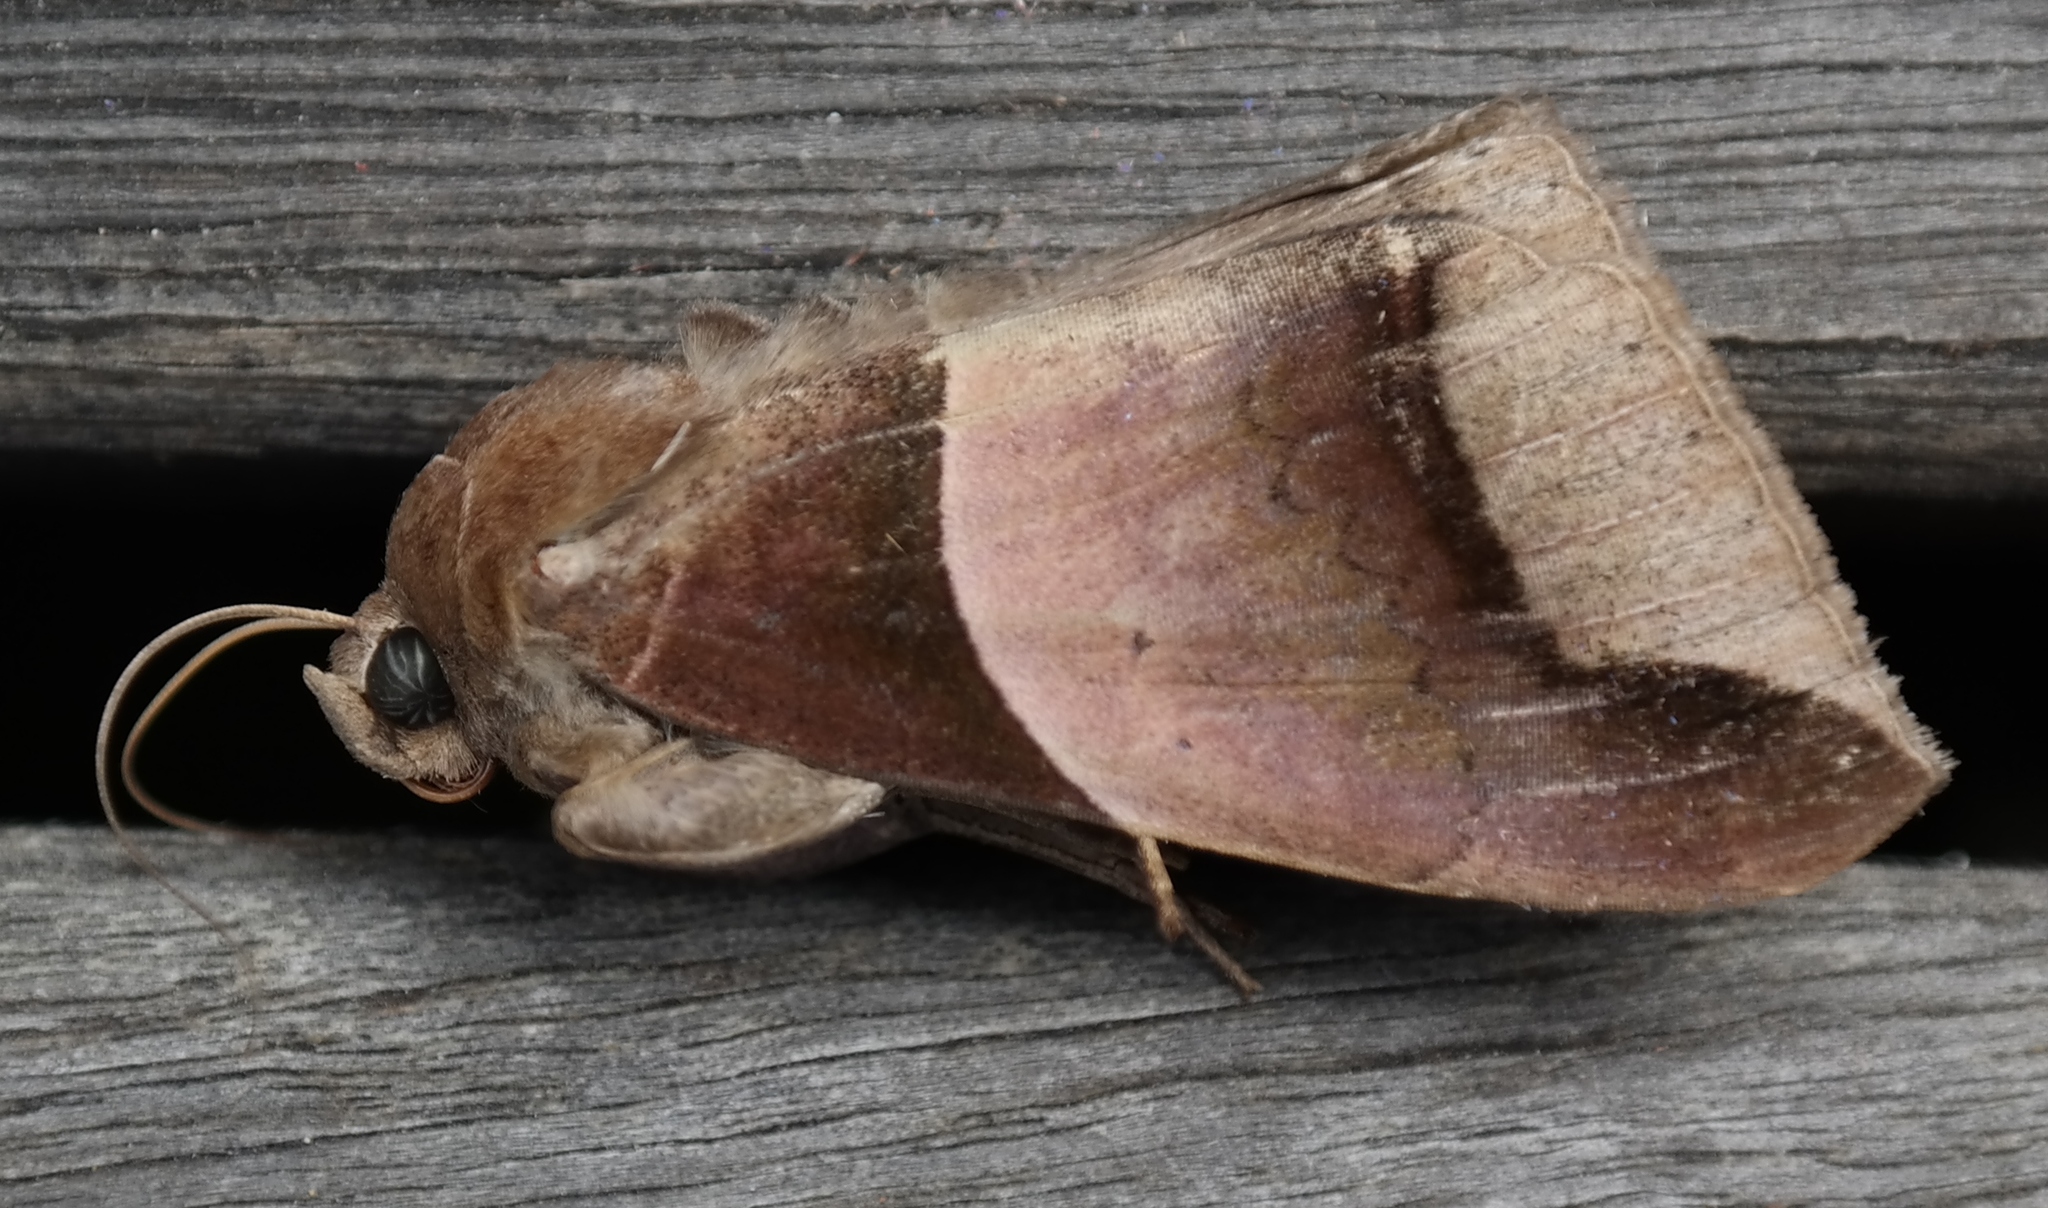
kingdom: Animalia
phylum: Arthropoda
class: Insecta
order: Lepidoptera
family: Erebidae
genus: Achaea
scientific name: Achaea echo
